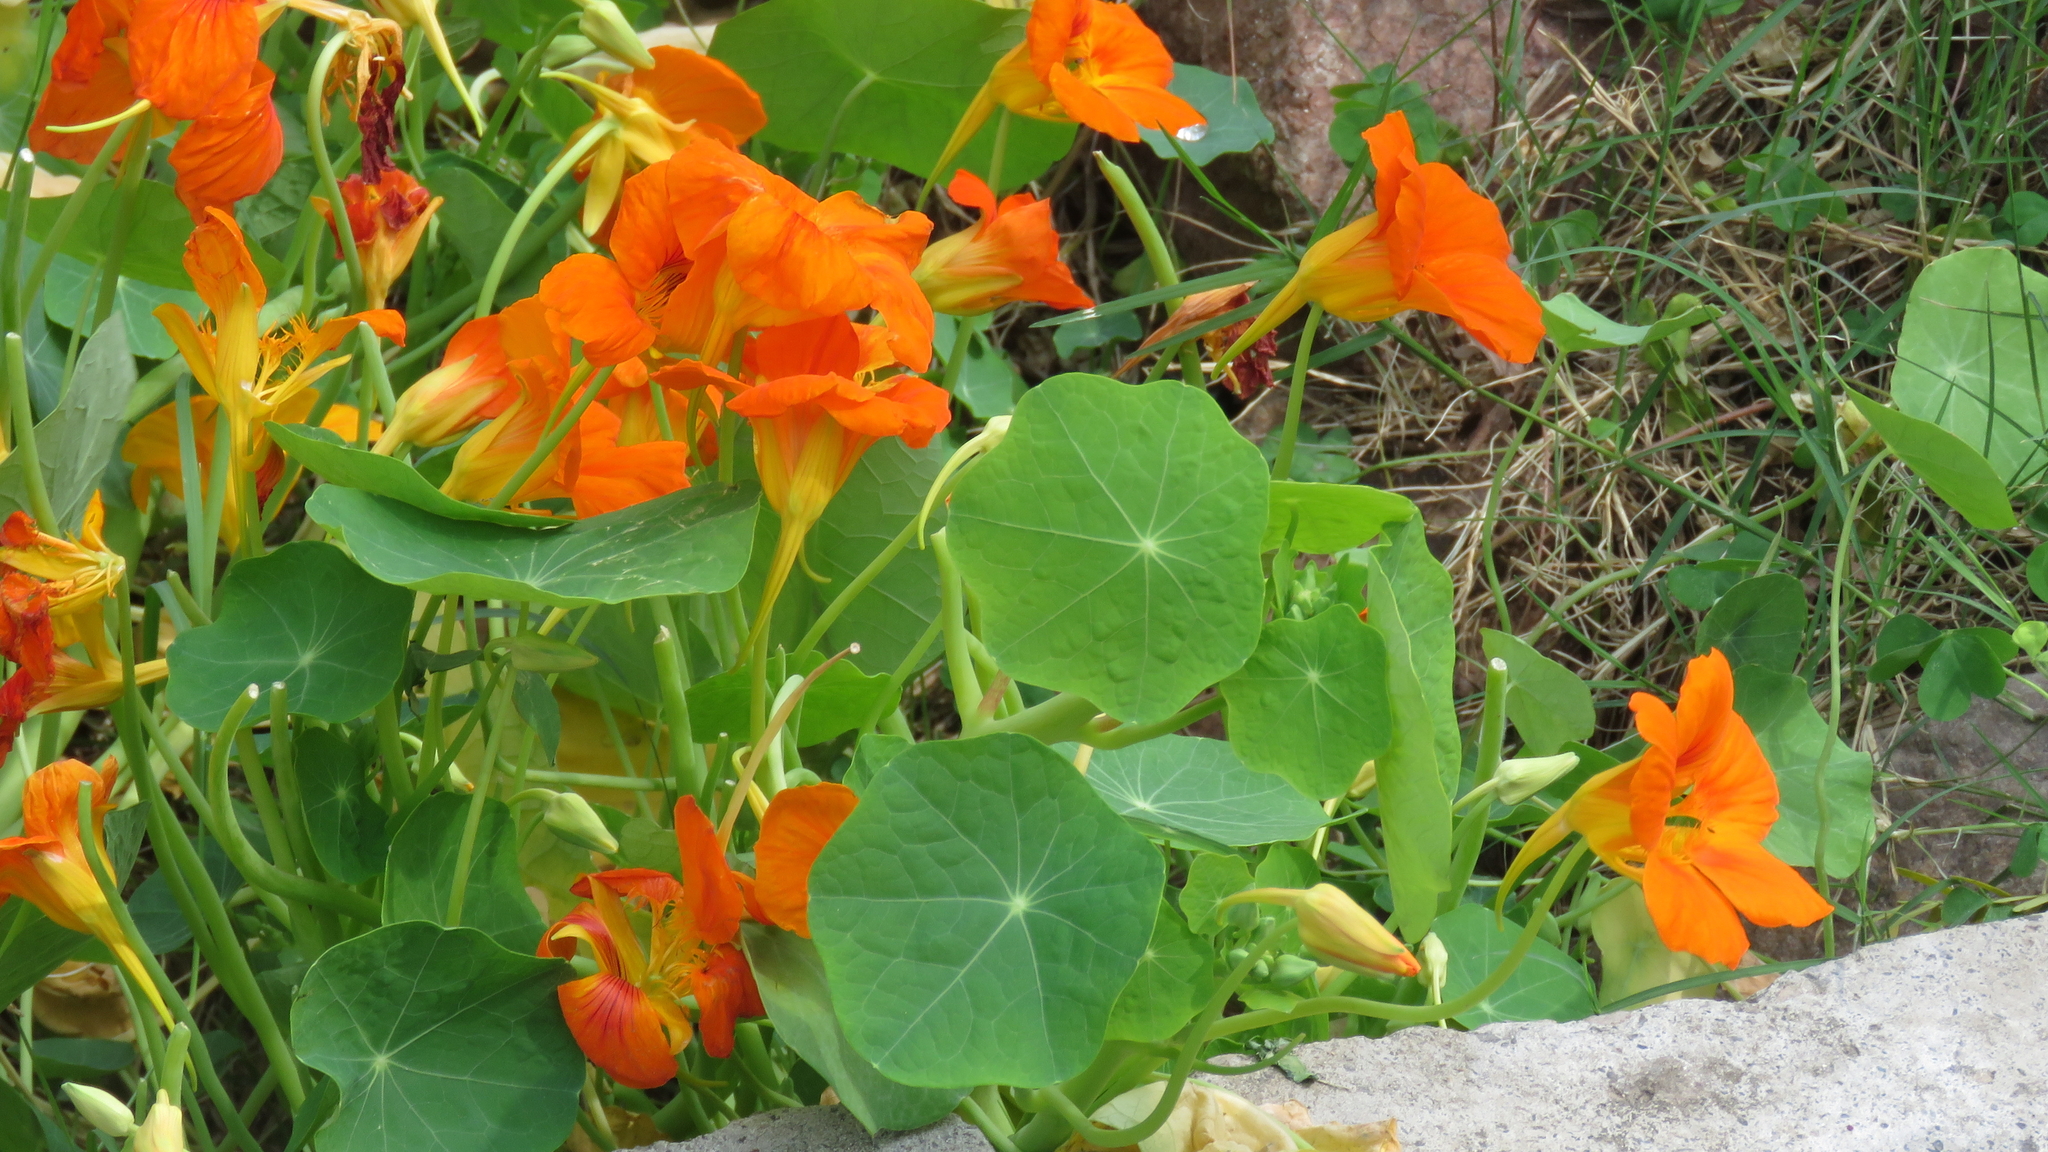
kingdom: Plantae
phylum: Tracheophyta
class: Magnoliopsida
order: Brassicales
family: Tropaeolaceae
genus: Tropaeolum
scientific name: Tropaeolum majus
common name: Nasturtium
